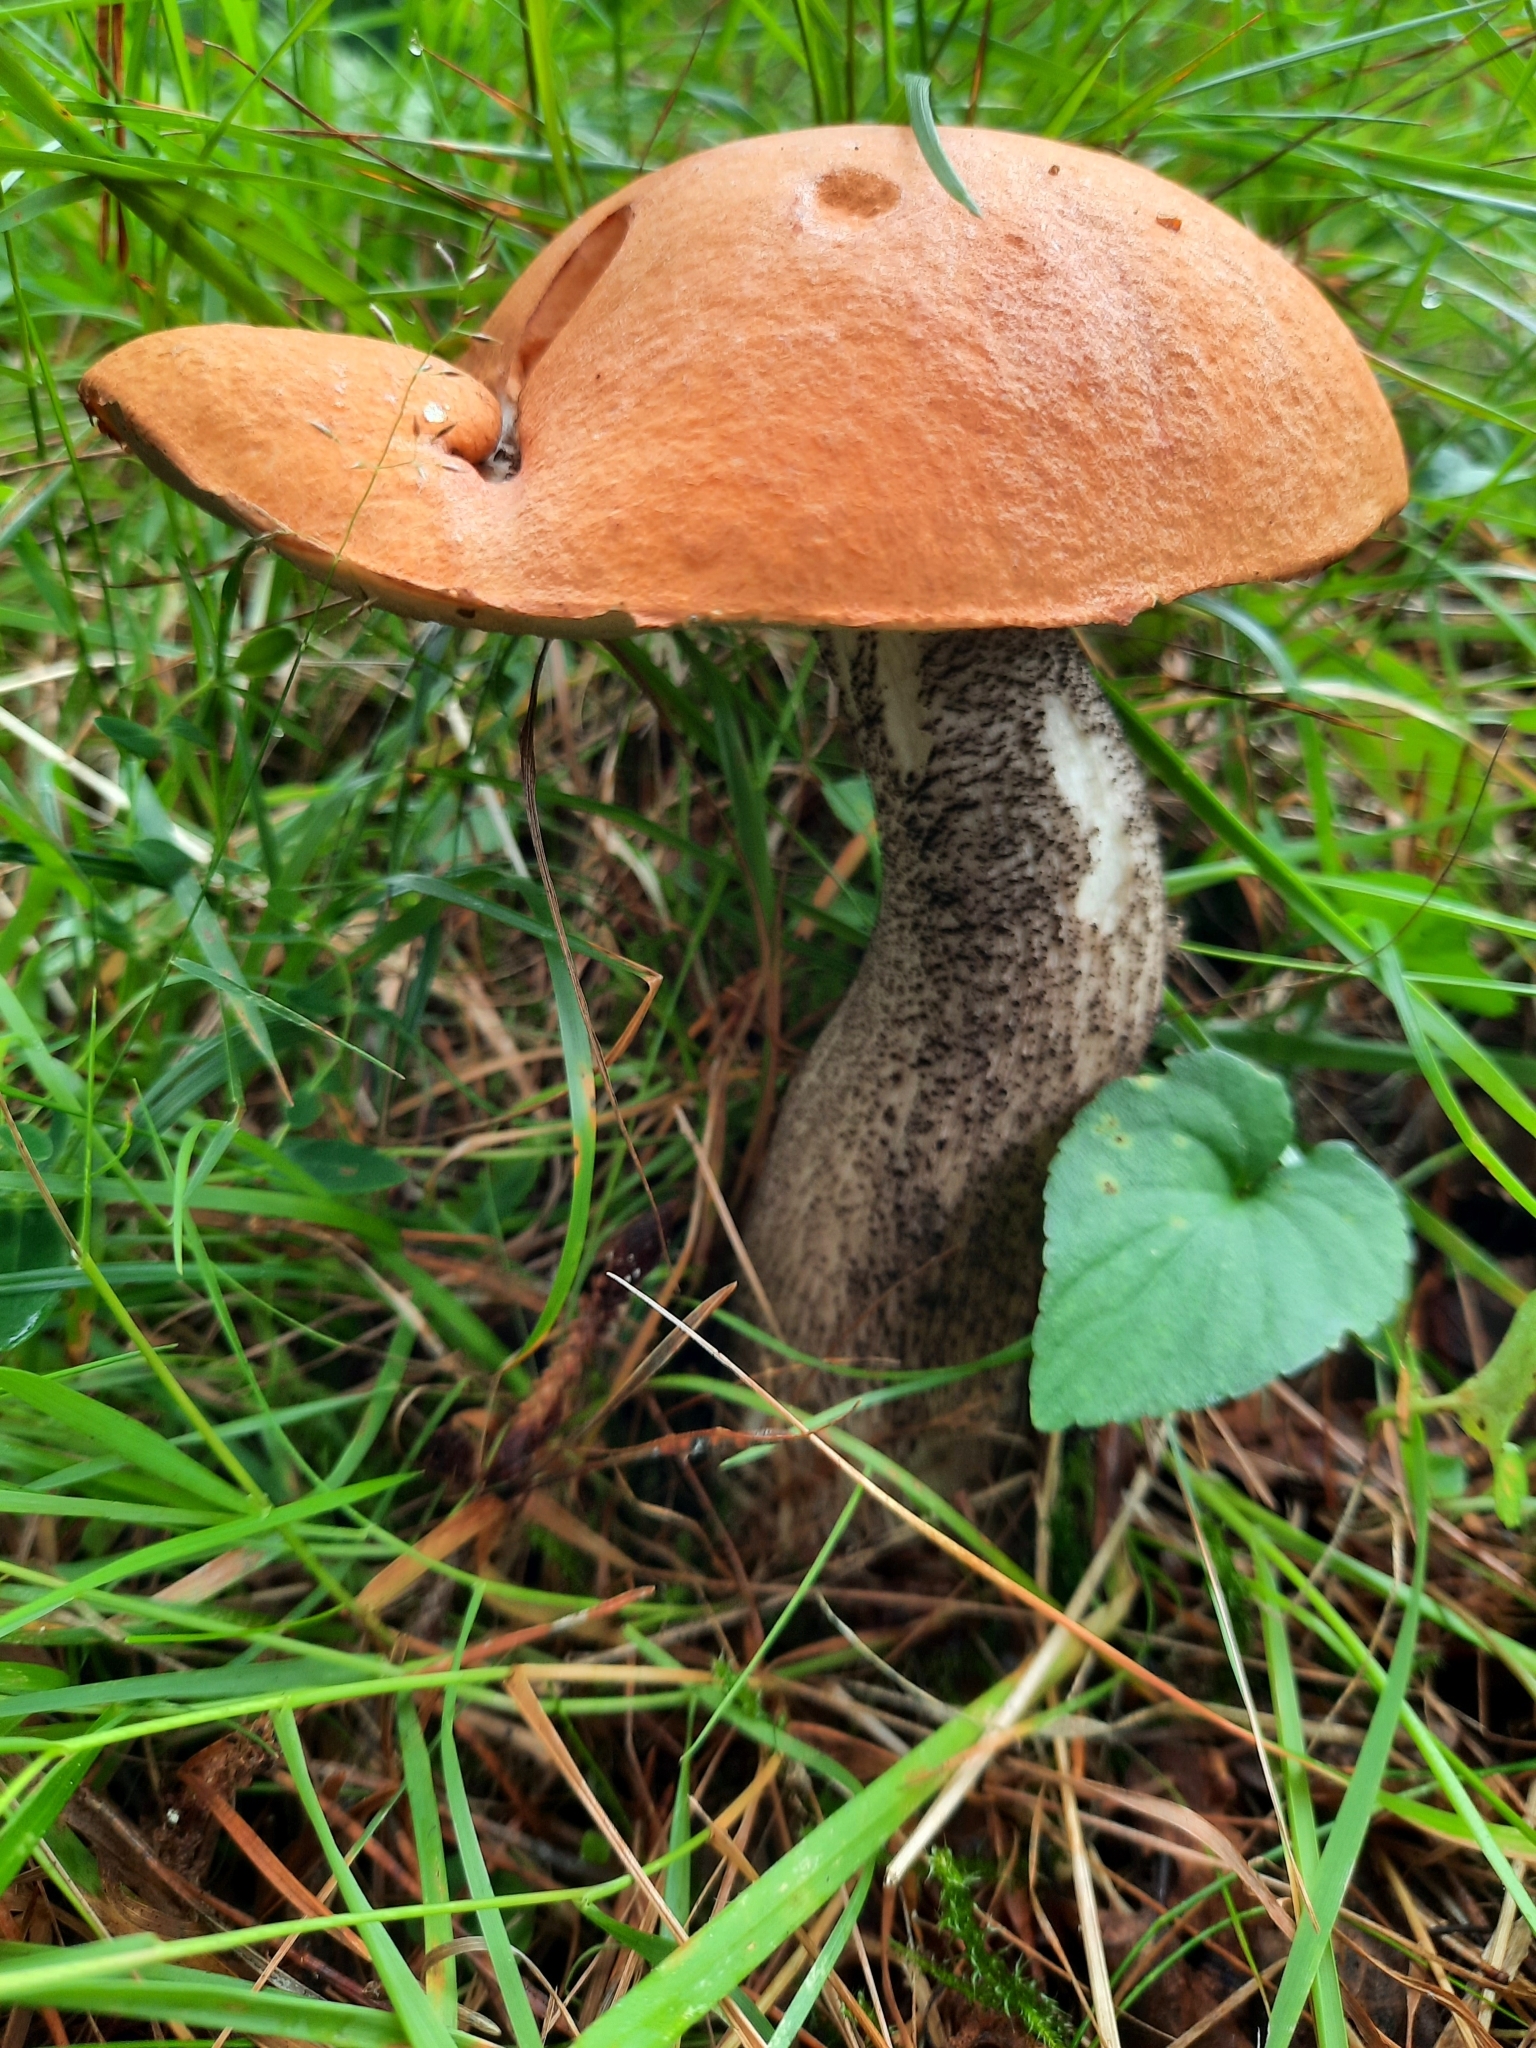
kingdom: Fungi
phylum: Basidiomycota
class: Agaricomycetes
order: Boletales
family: Boletaceae
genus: Leccinum
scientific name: Leccinum versipelle
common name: Orange birch bolete
